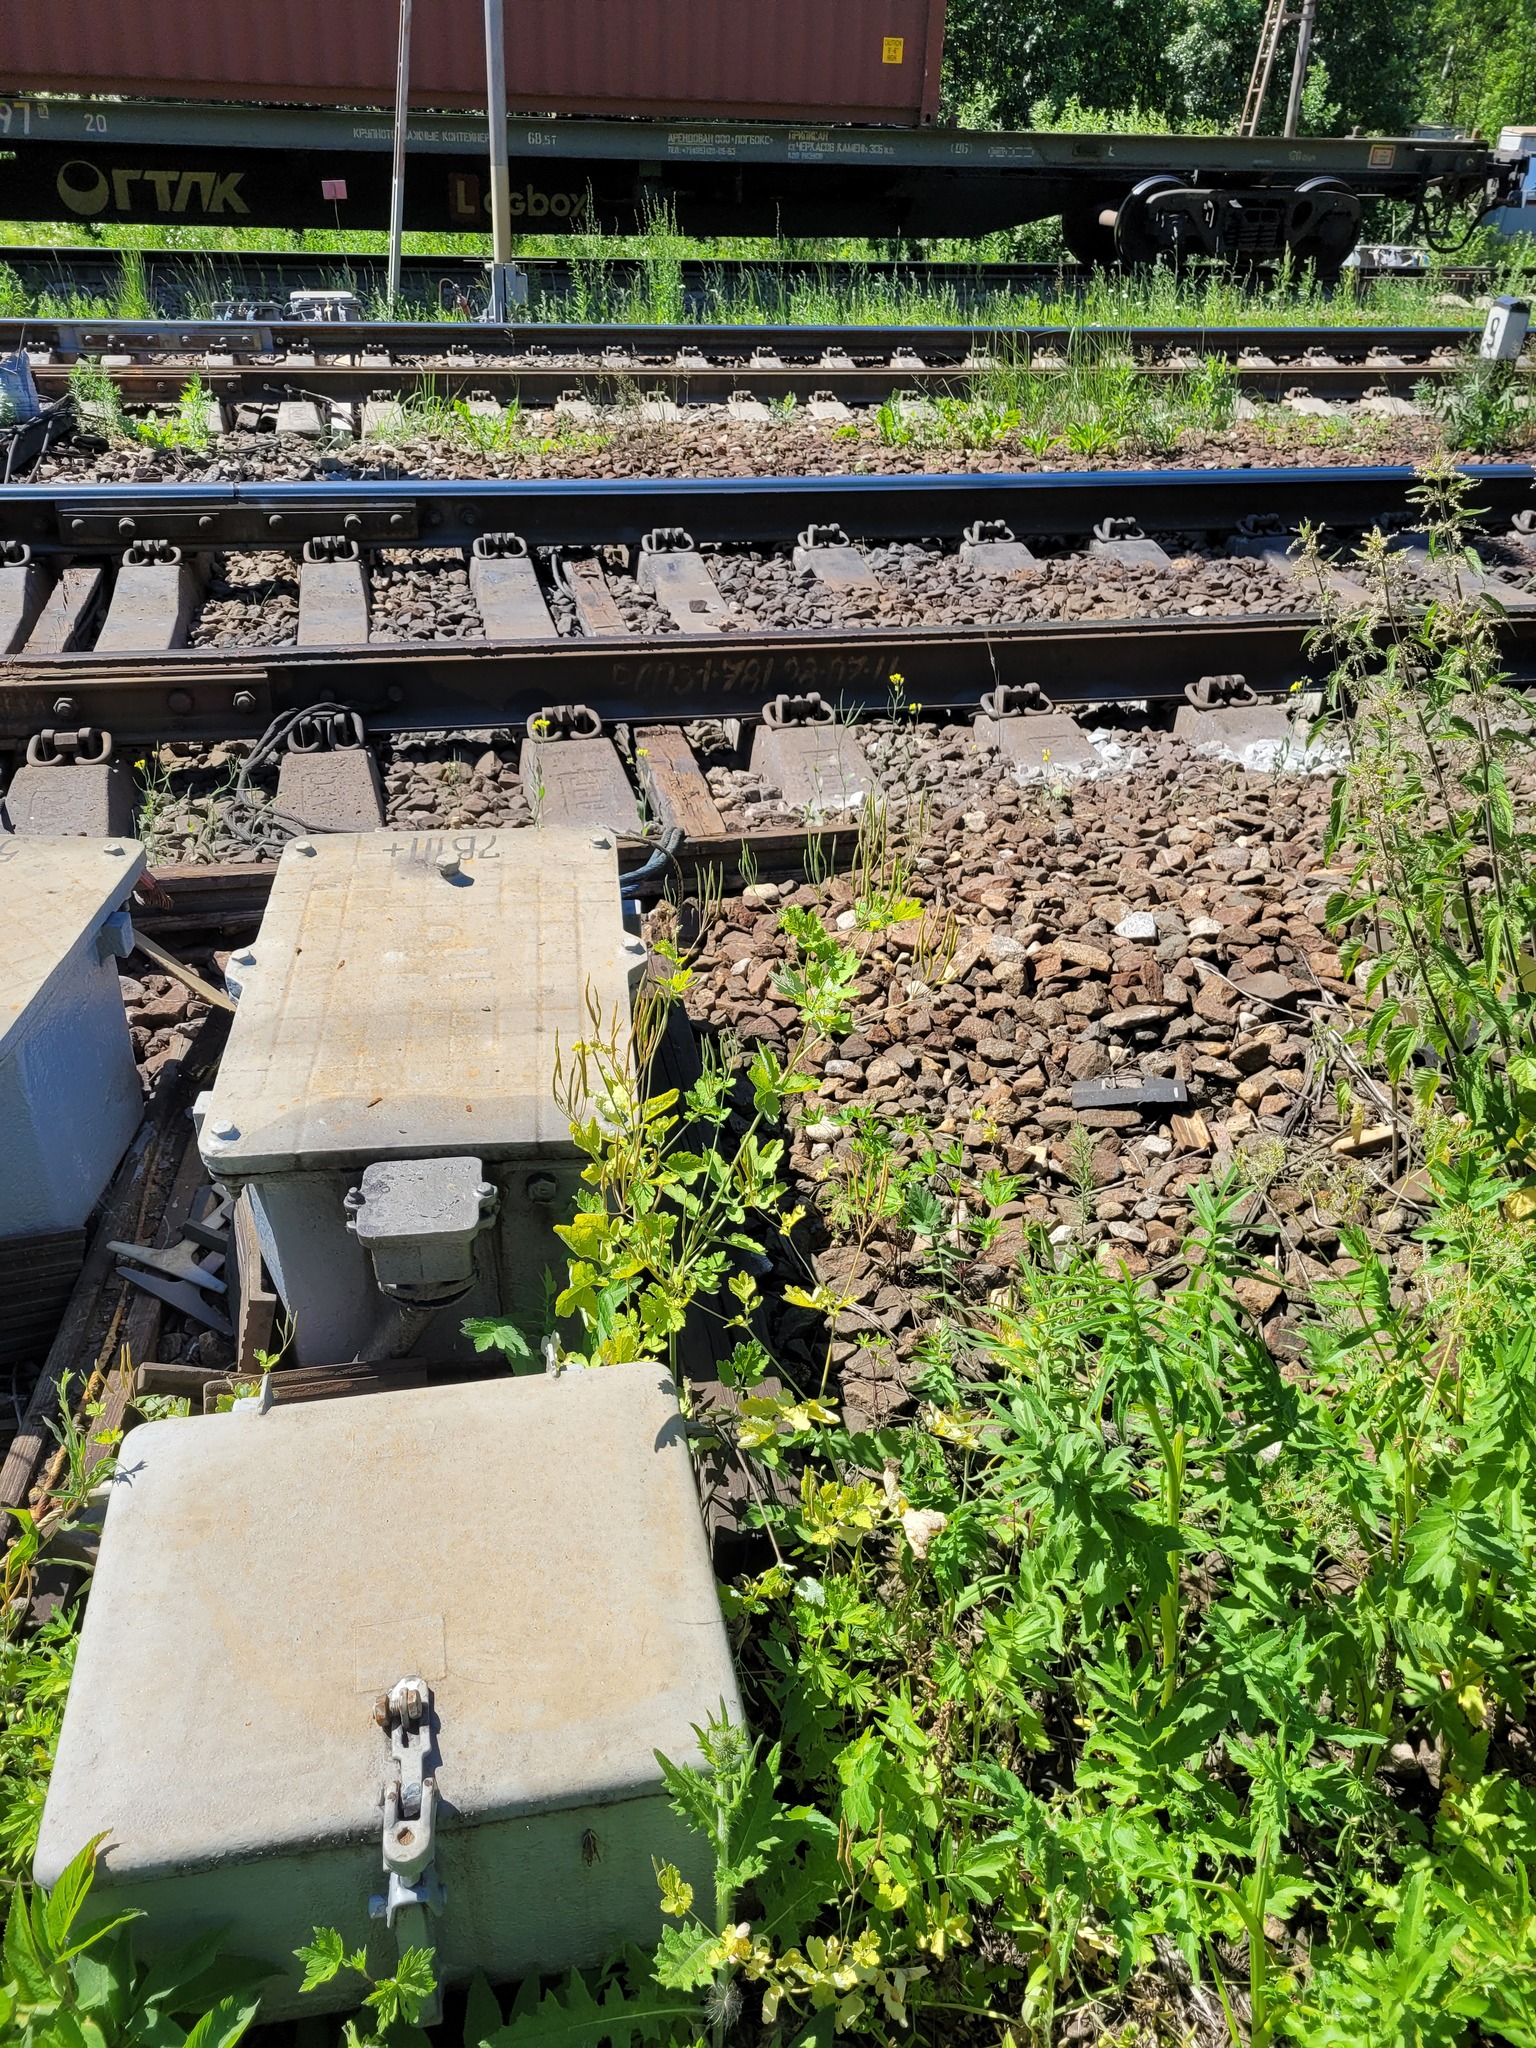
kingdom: Plantae
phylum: Tracheophyta
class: Magnoliopsida
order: Ranunculales
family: Papaveraceae
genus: Chelidonium
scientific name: Chelidonium majus
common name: Greater celandine
